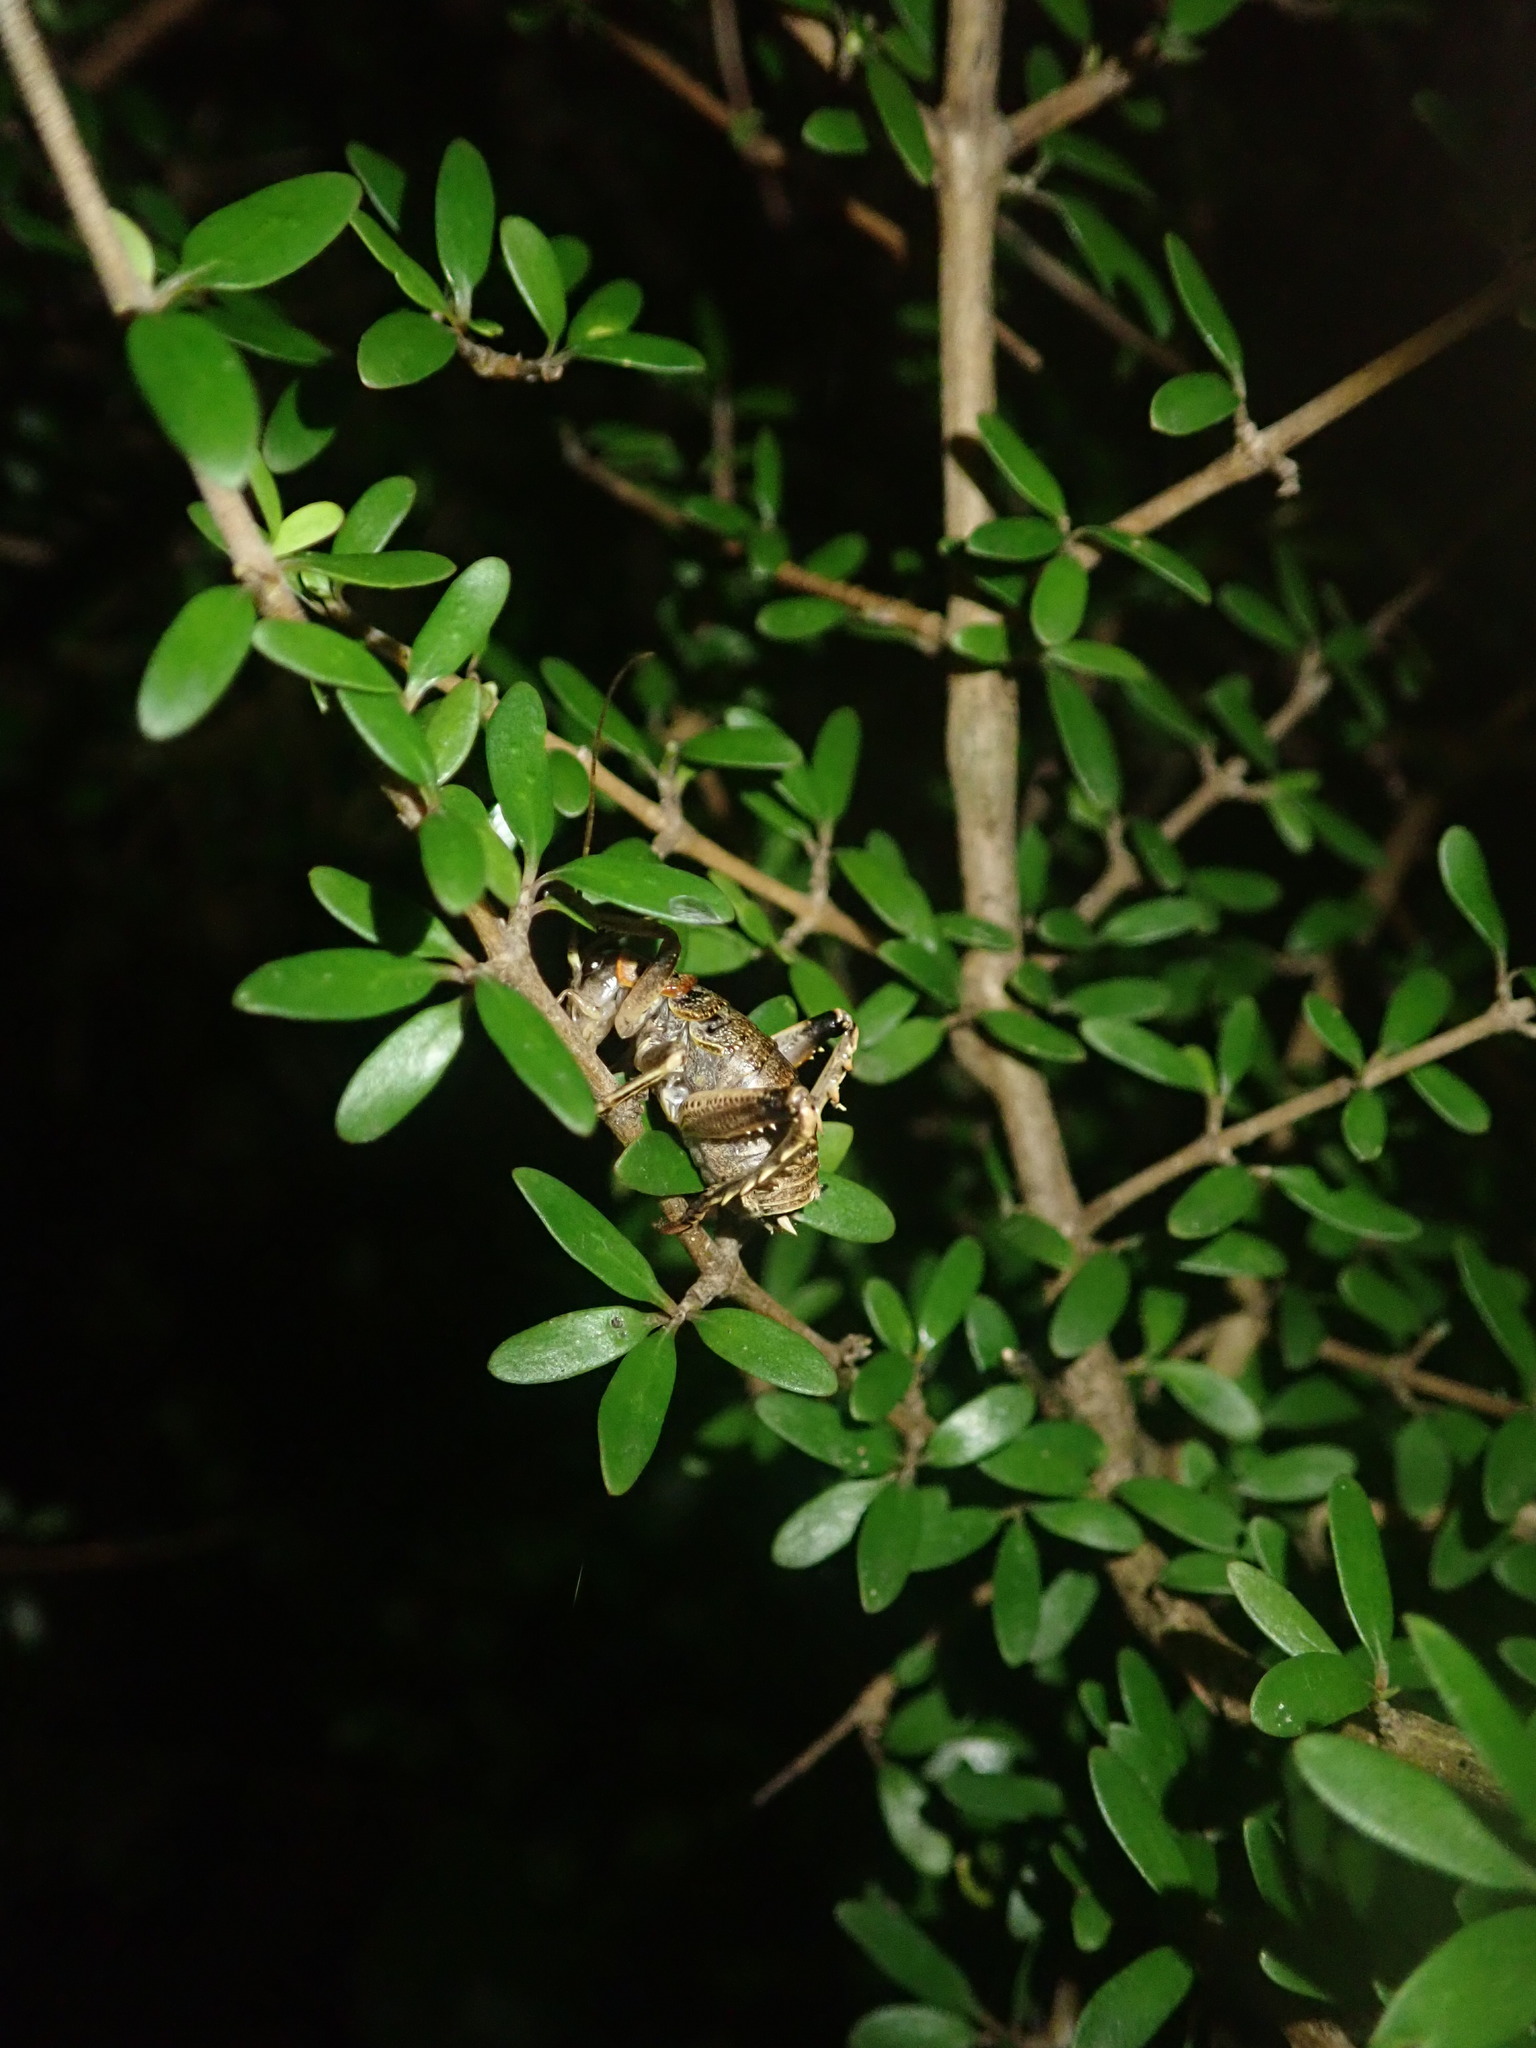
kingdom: Animalia
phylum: Arthropoda
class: Insecta
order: Orthoptera
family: Anostostomatidae
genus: Deinacrida
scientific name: Deinacrida rugosa
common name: Stephens island weta
